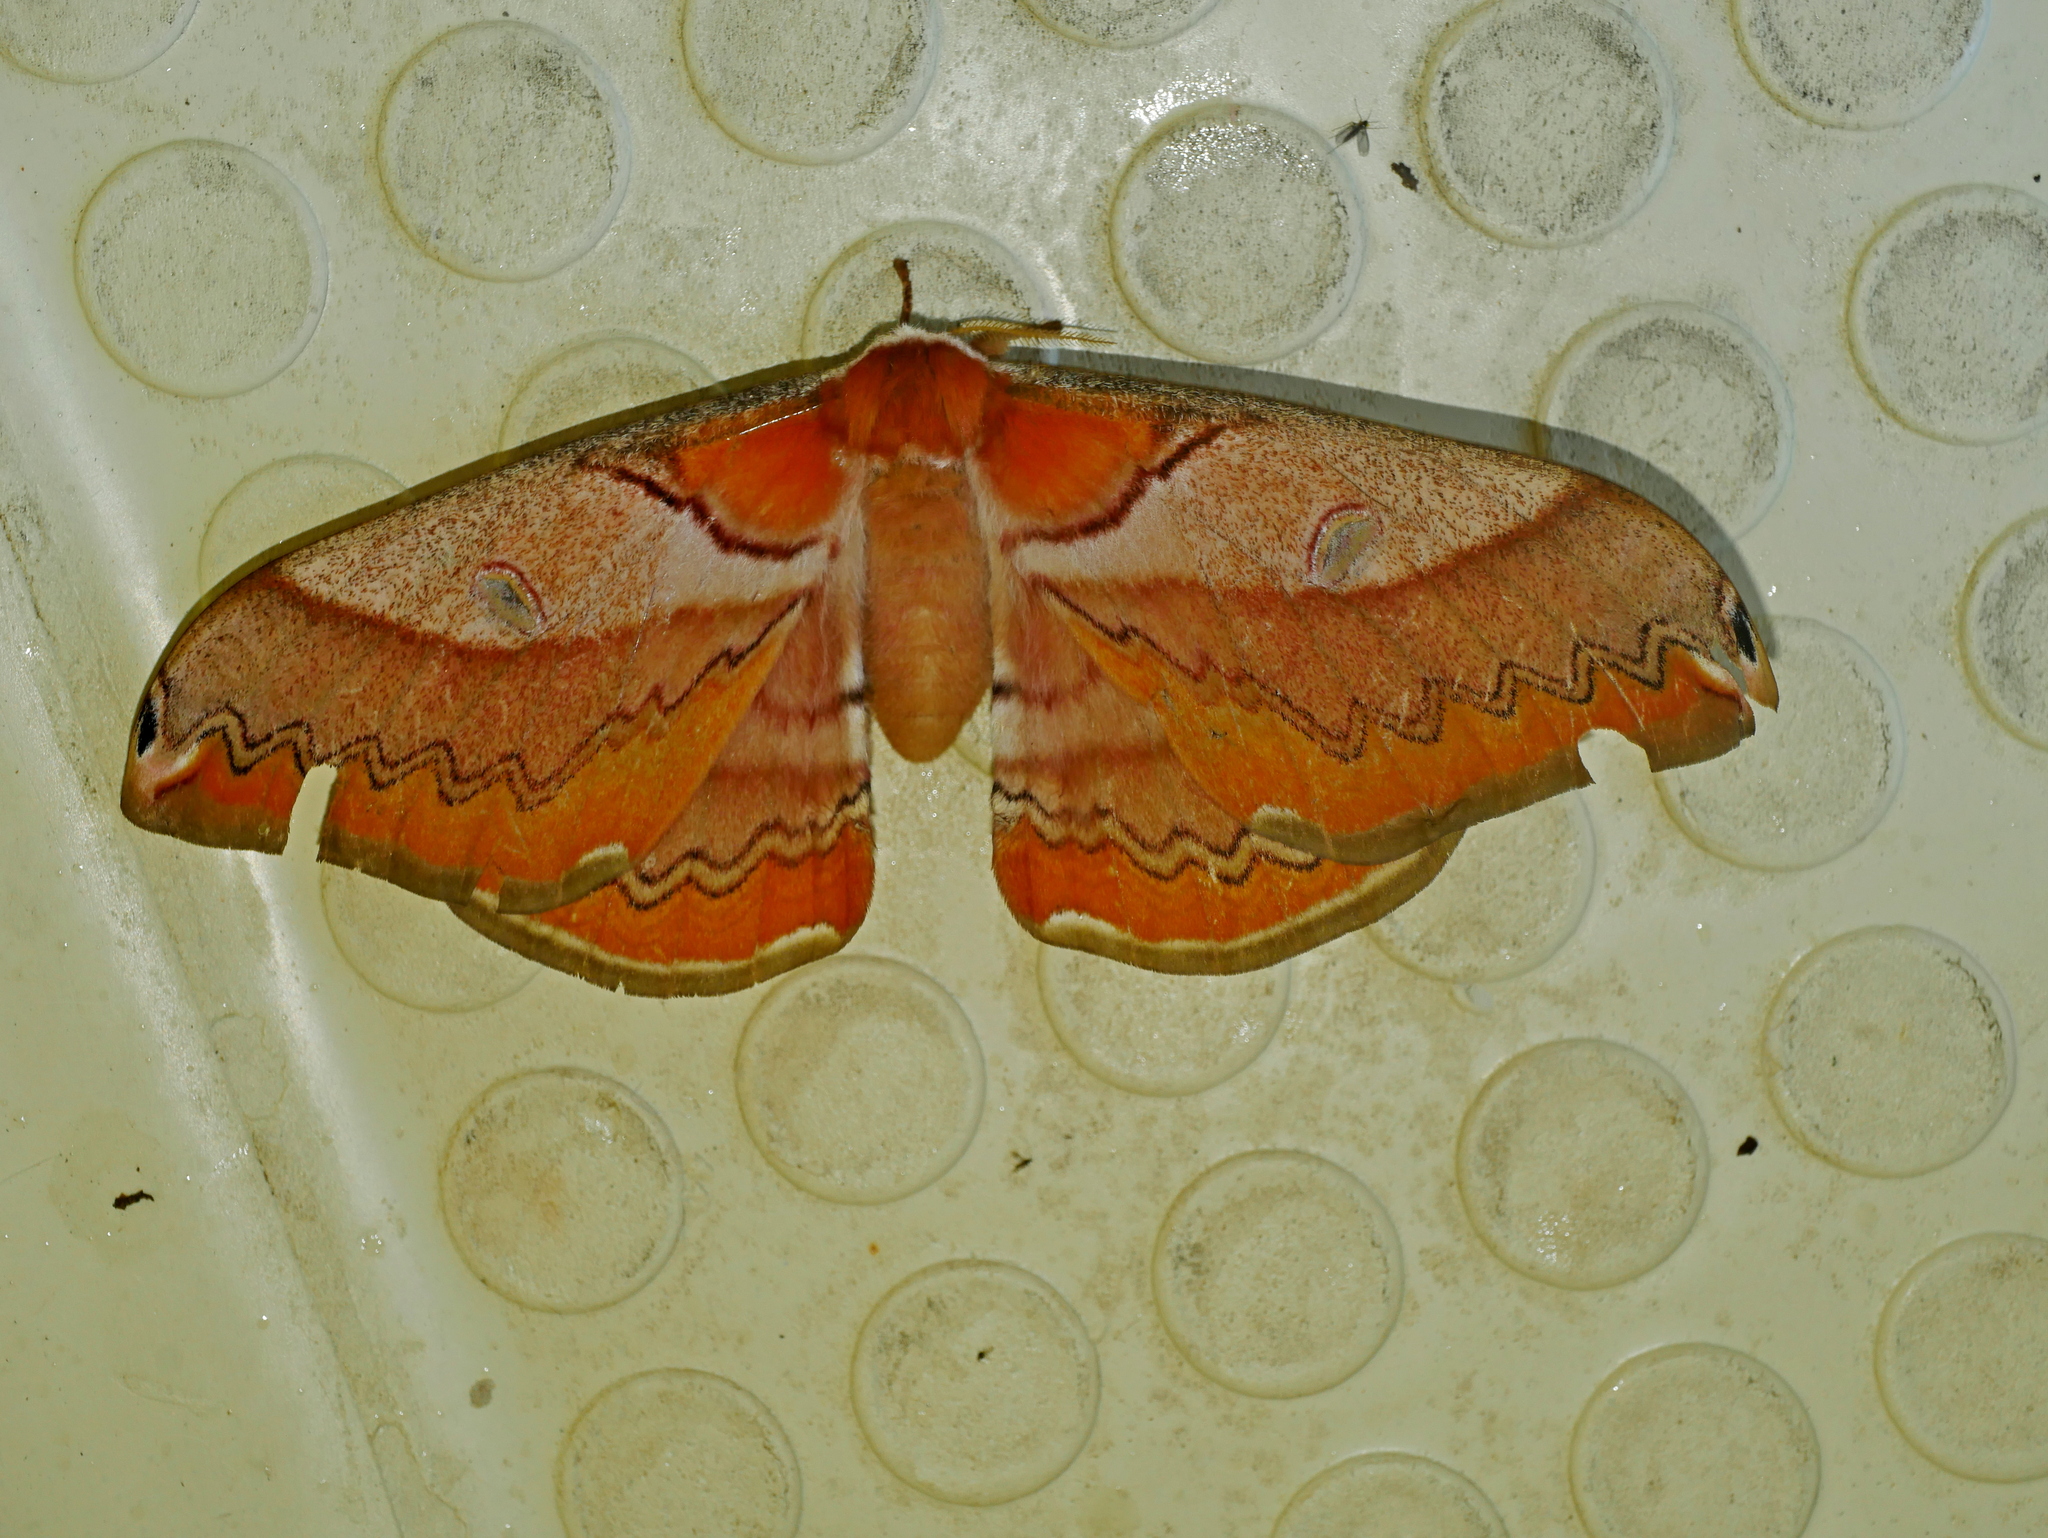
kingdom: Animalia
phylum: Arthropoda
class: Insecta
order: Lepidoptera
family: Saturniidae
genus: Saturnia
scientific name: Saturnia japonica
